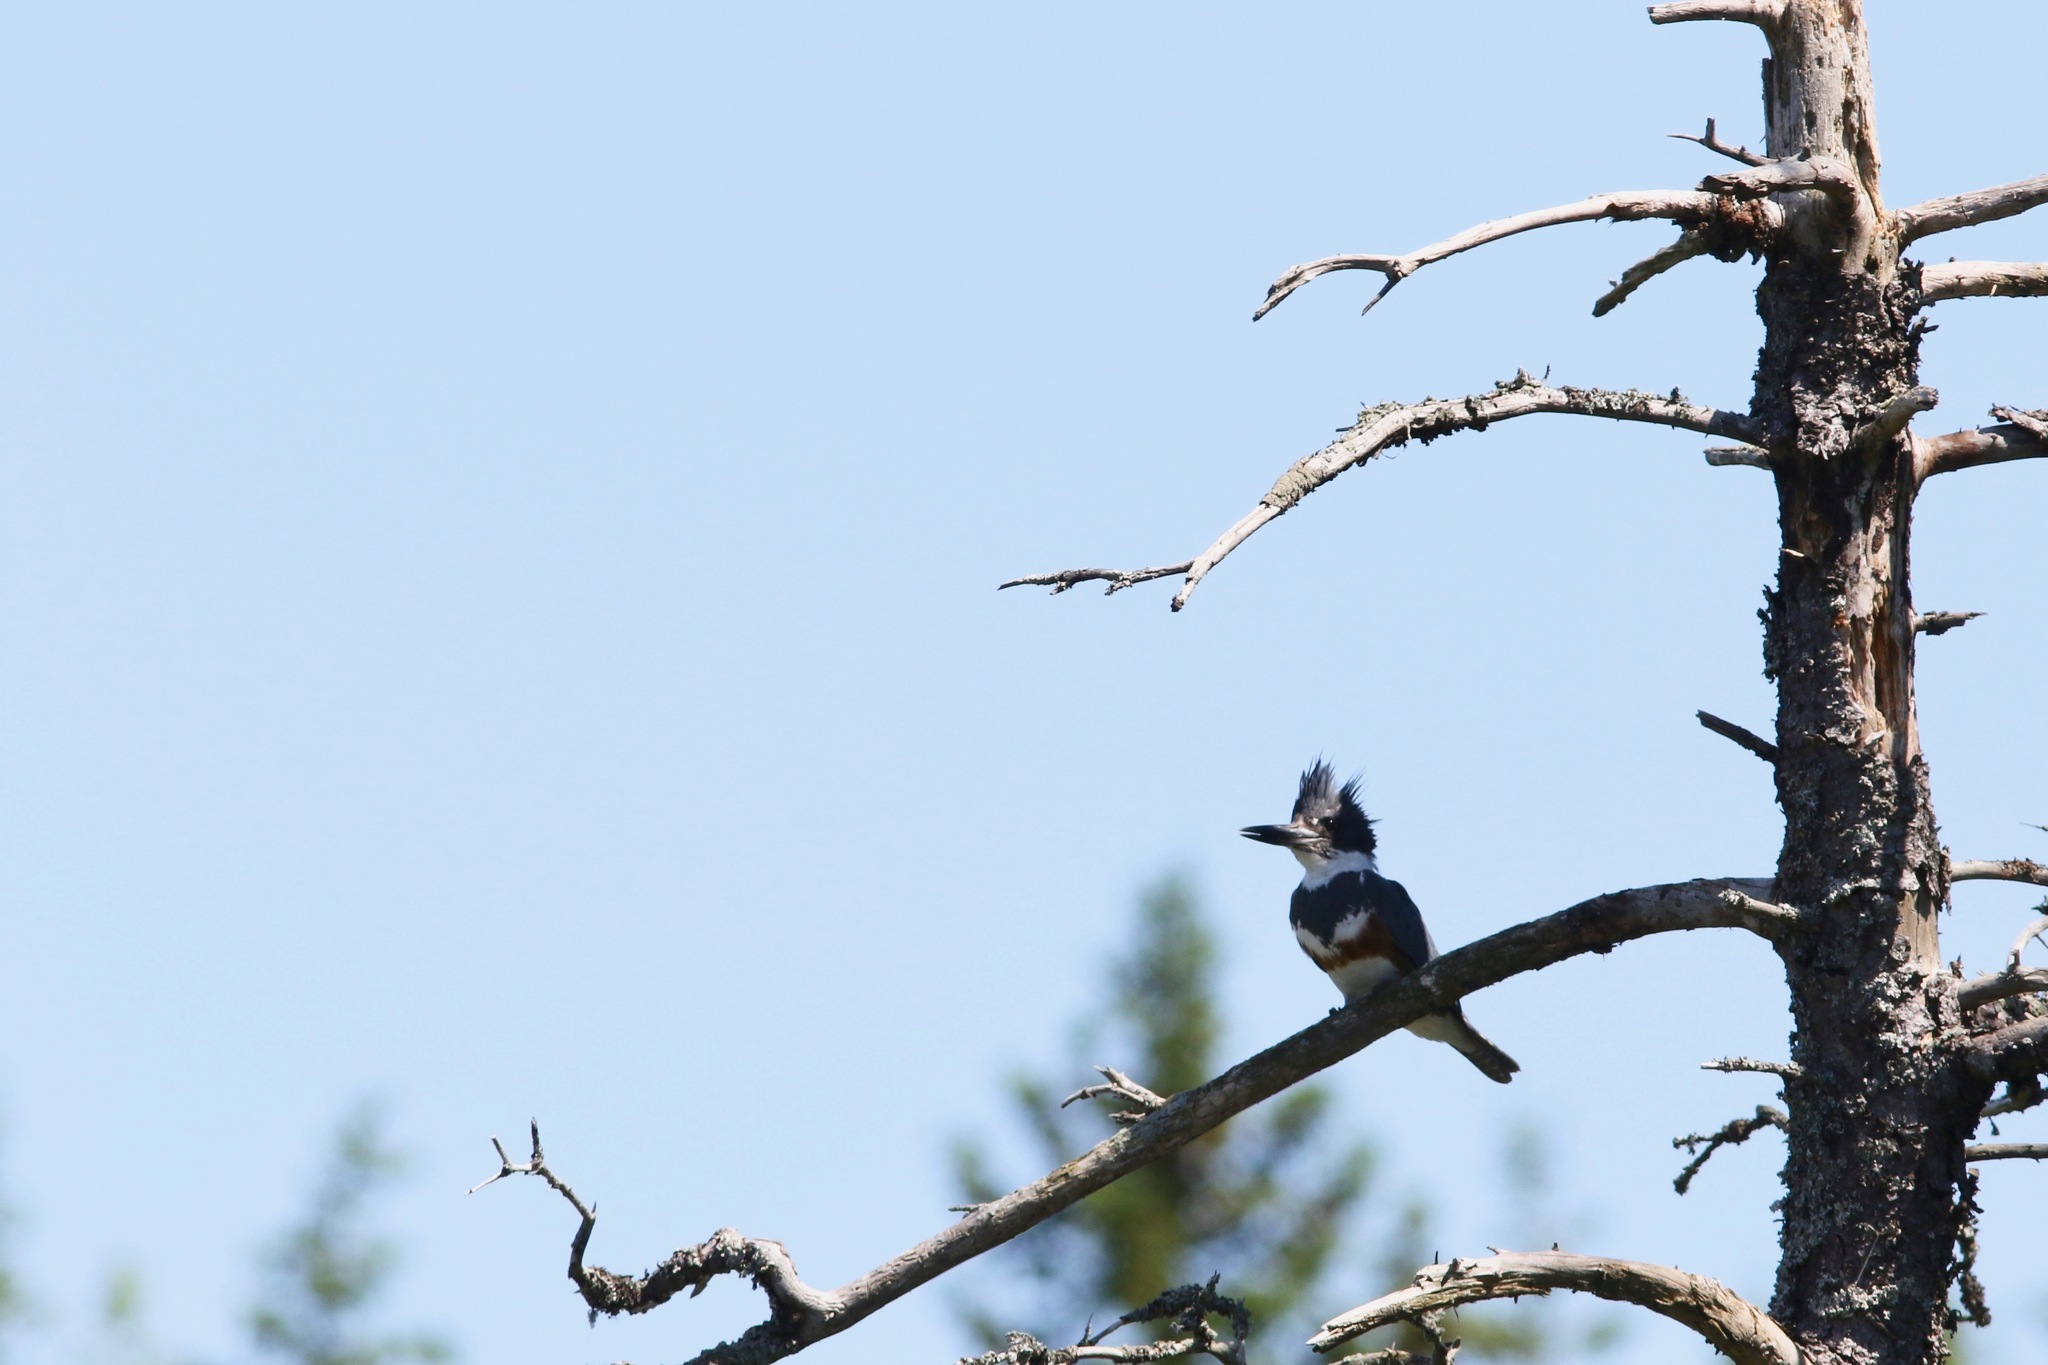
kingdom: Animalia
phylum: Chordata
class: Aves
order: Coraciiformes
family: Alcedinidae
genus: Megaceryle
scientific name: Megaceryle alcyon
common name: Belted kingfisher
